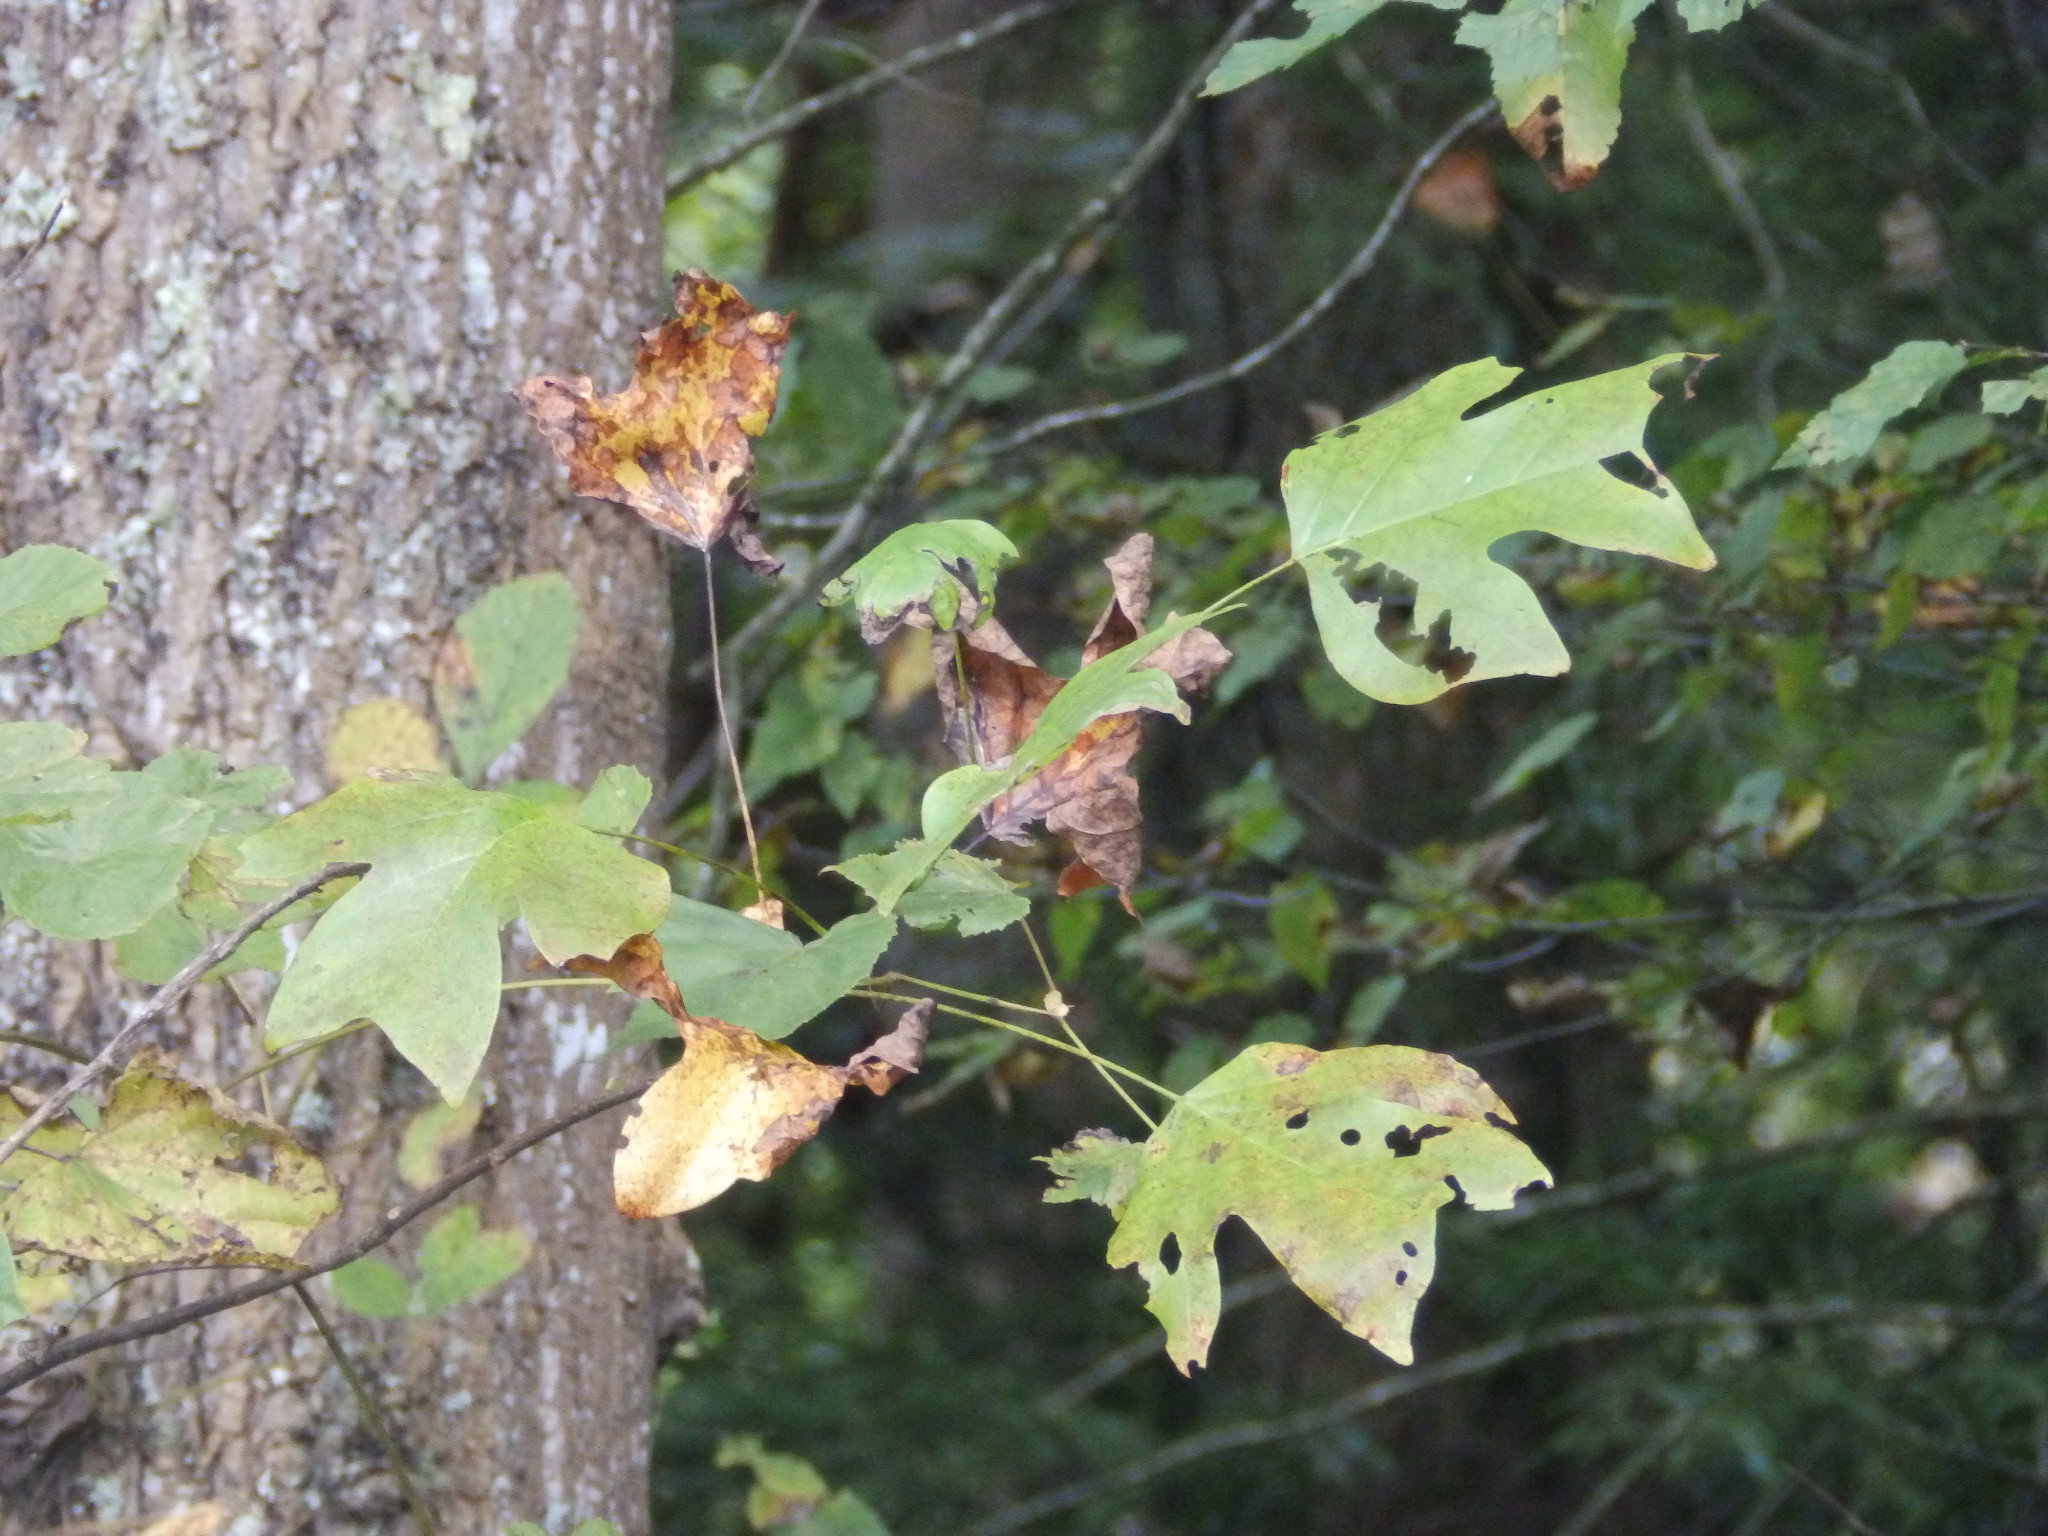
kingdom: Plantae
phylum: Tracheophyta
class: Magnoliopsida
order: Magnoliales
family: Magnoliaceae
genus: Liriodendron
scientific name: Liriodendron tulipifera
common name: Tulip tree
